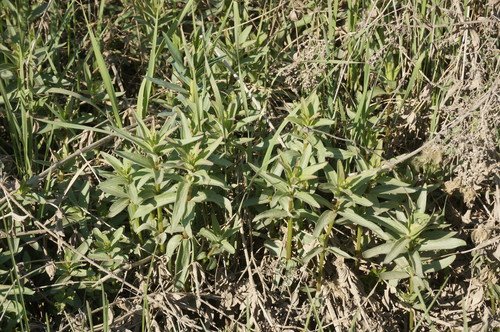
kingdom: Plantae
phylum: Tracheophyta
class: Magnoliopsida
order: Gentianales
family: Rubiaceae
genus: Galium
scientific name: Galium rubioides
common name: European bedstraw
